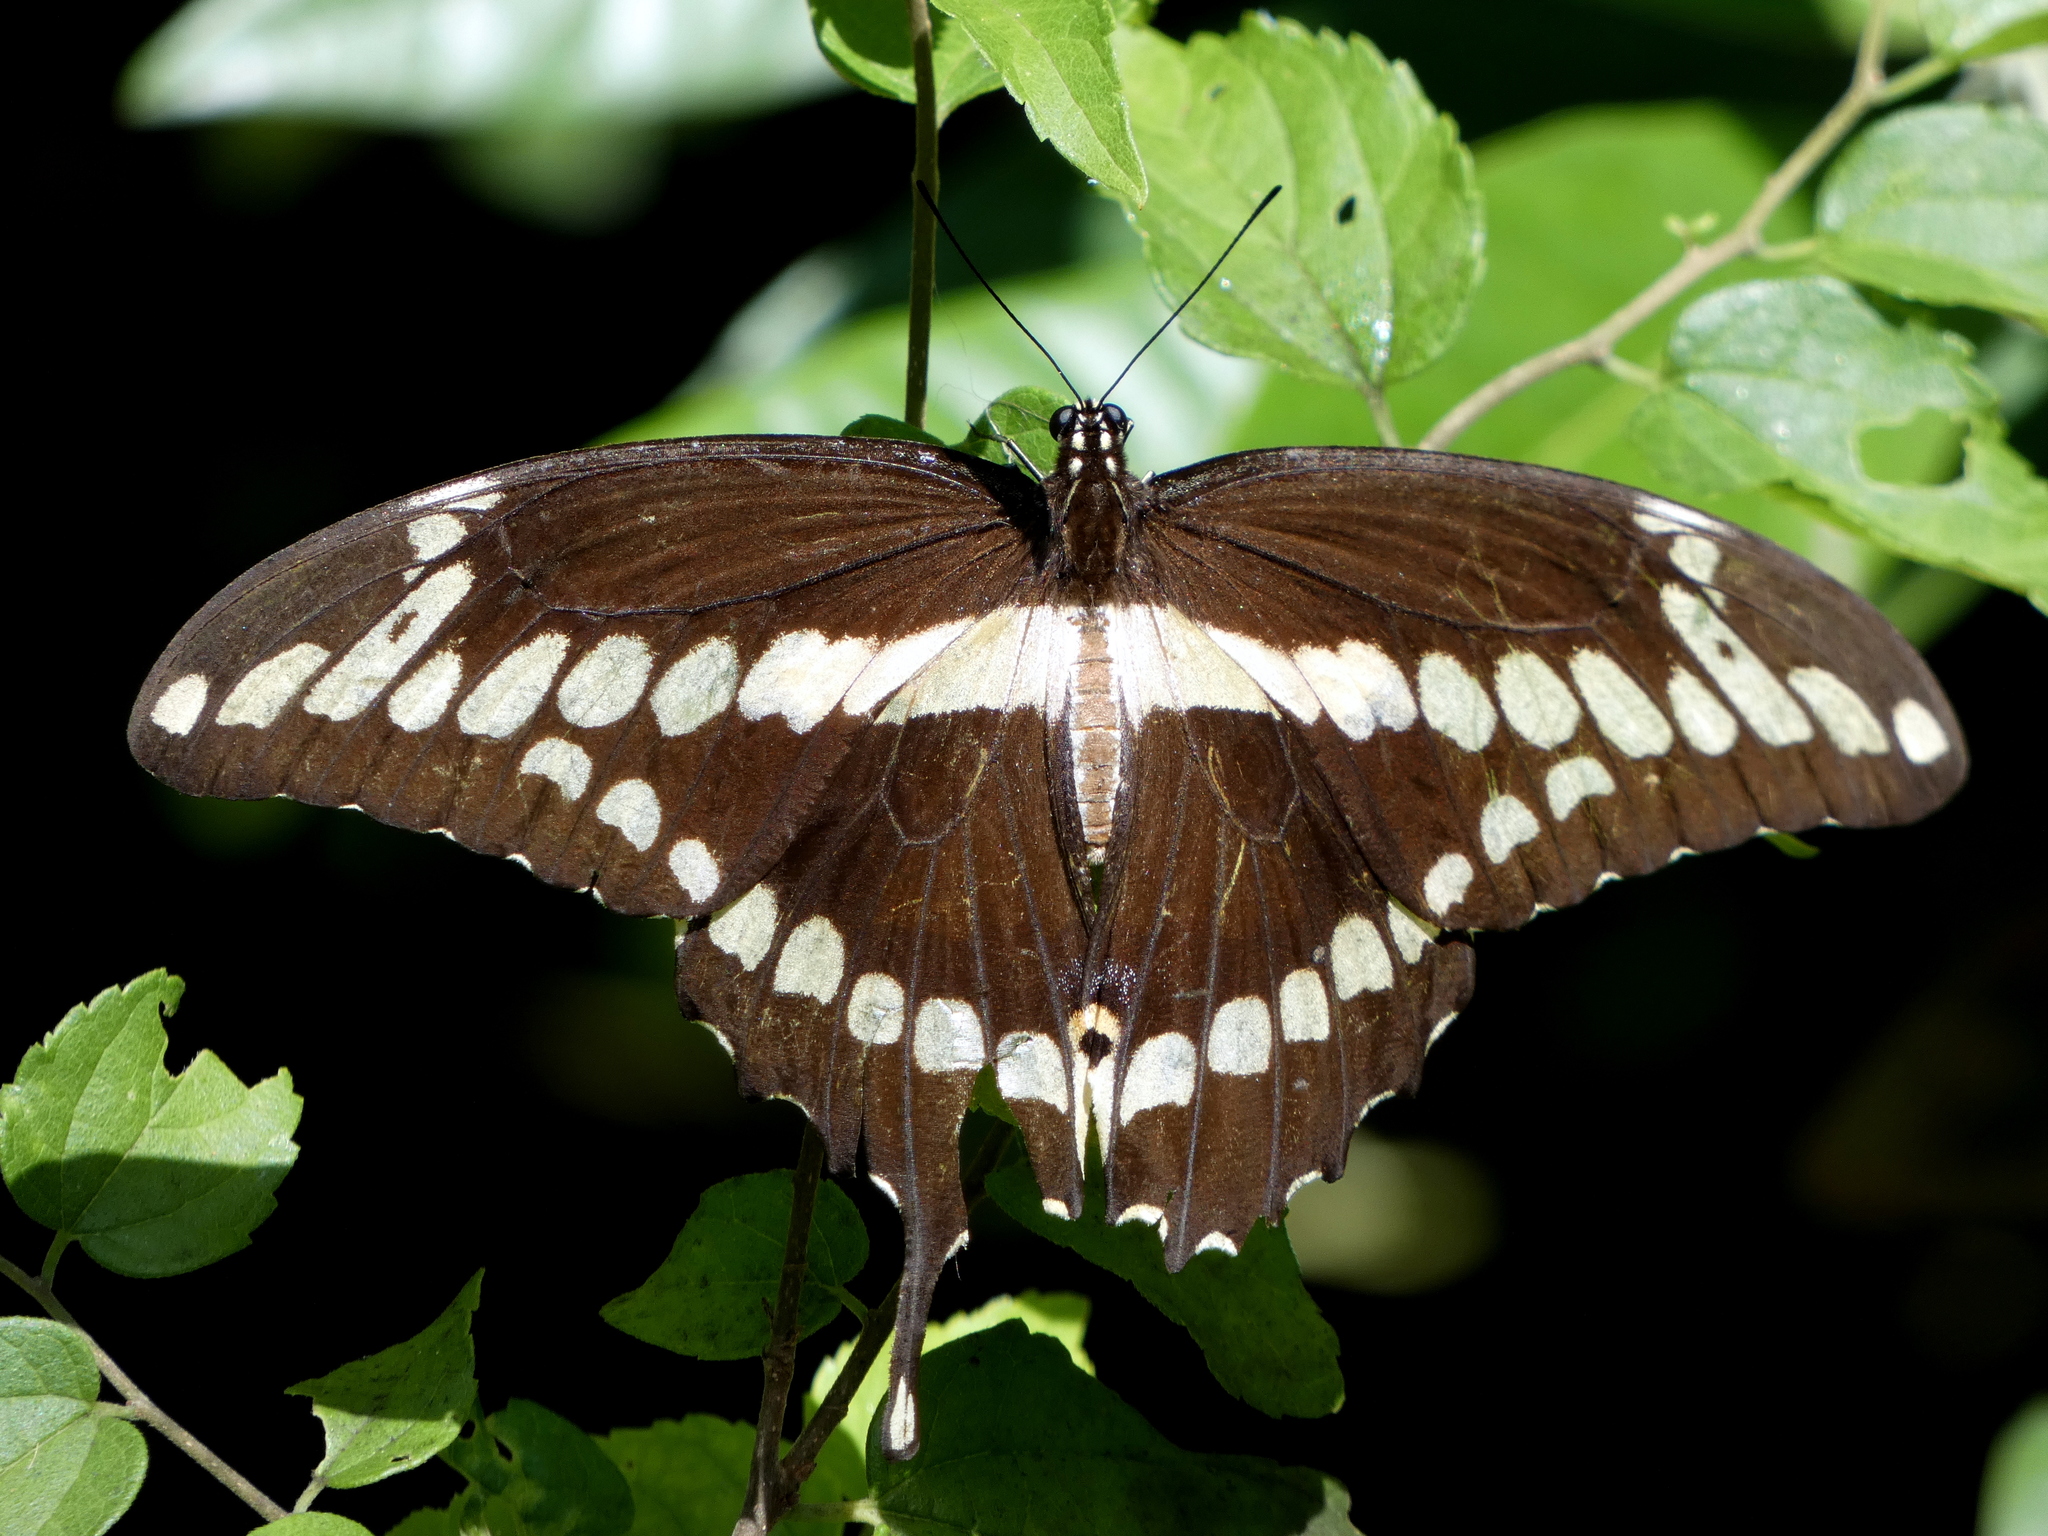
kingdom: Animalia
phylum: Arthropoda
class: Insecta
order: Lepidoptera
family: Papilionidae
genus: Papilio
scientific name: Papilio cresphontes
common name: Giant swallowtail
